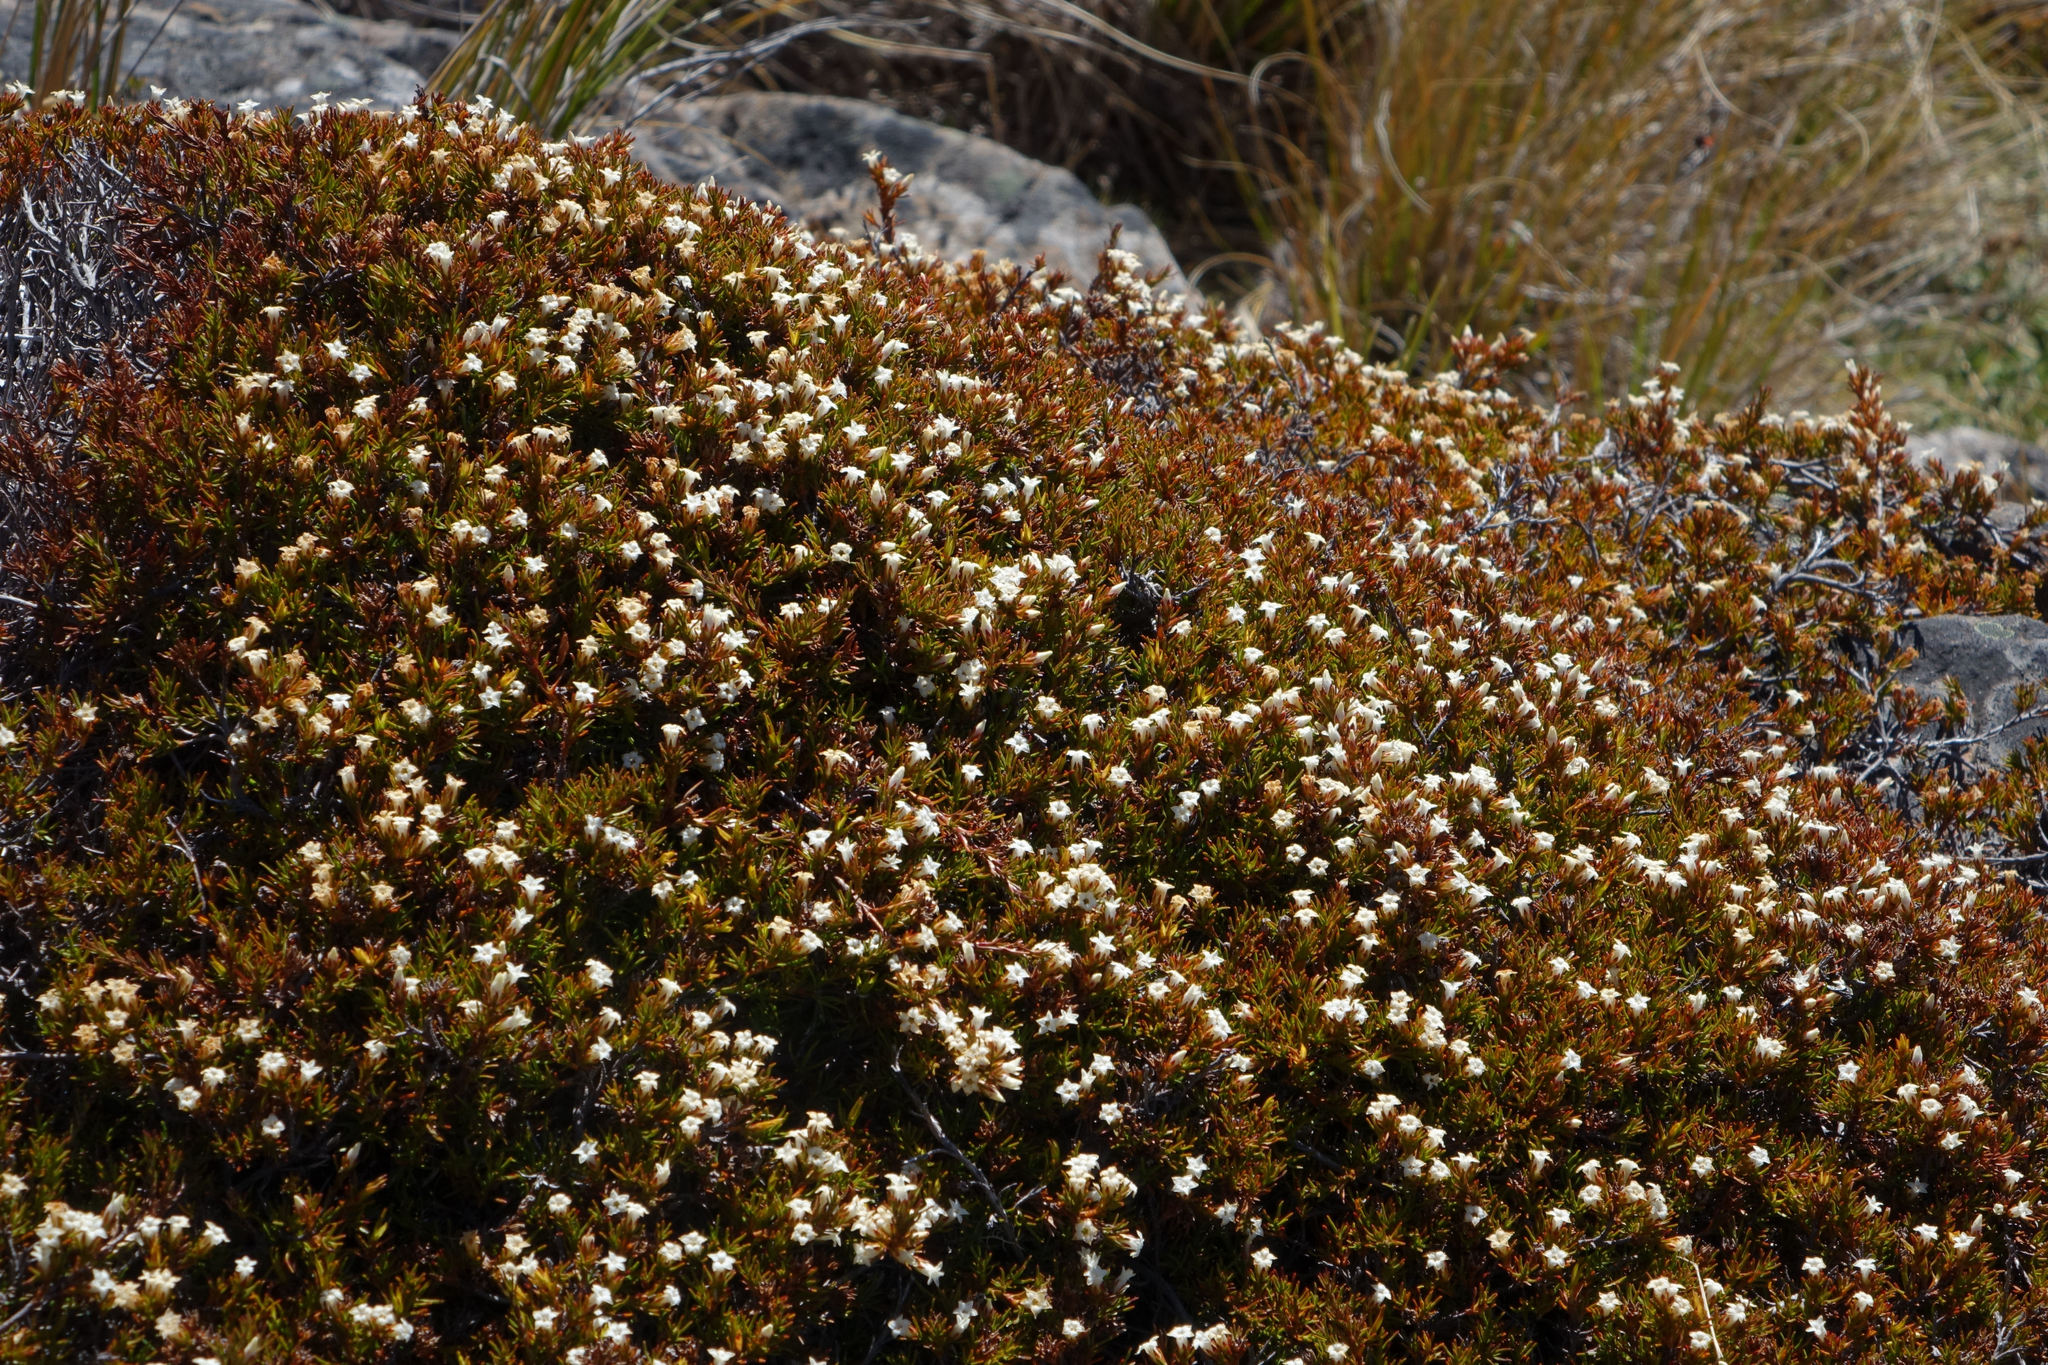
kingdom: Plantae
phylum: Tracheophyta
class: Magnoliopsida
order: Ericales
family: Ericaceae
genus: Dracophyllum
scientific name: Dracophyllum pronum
